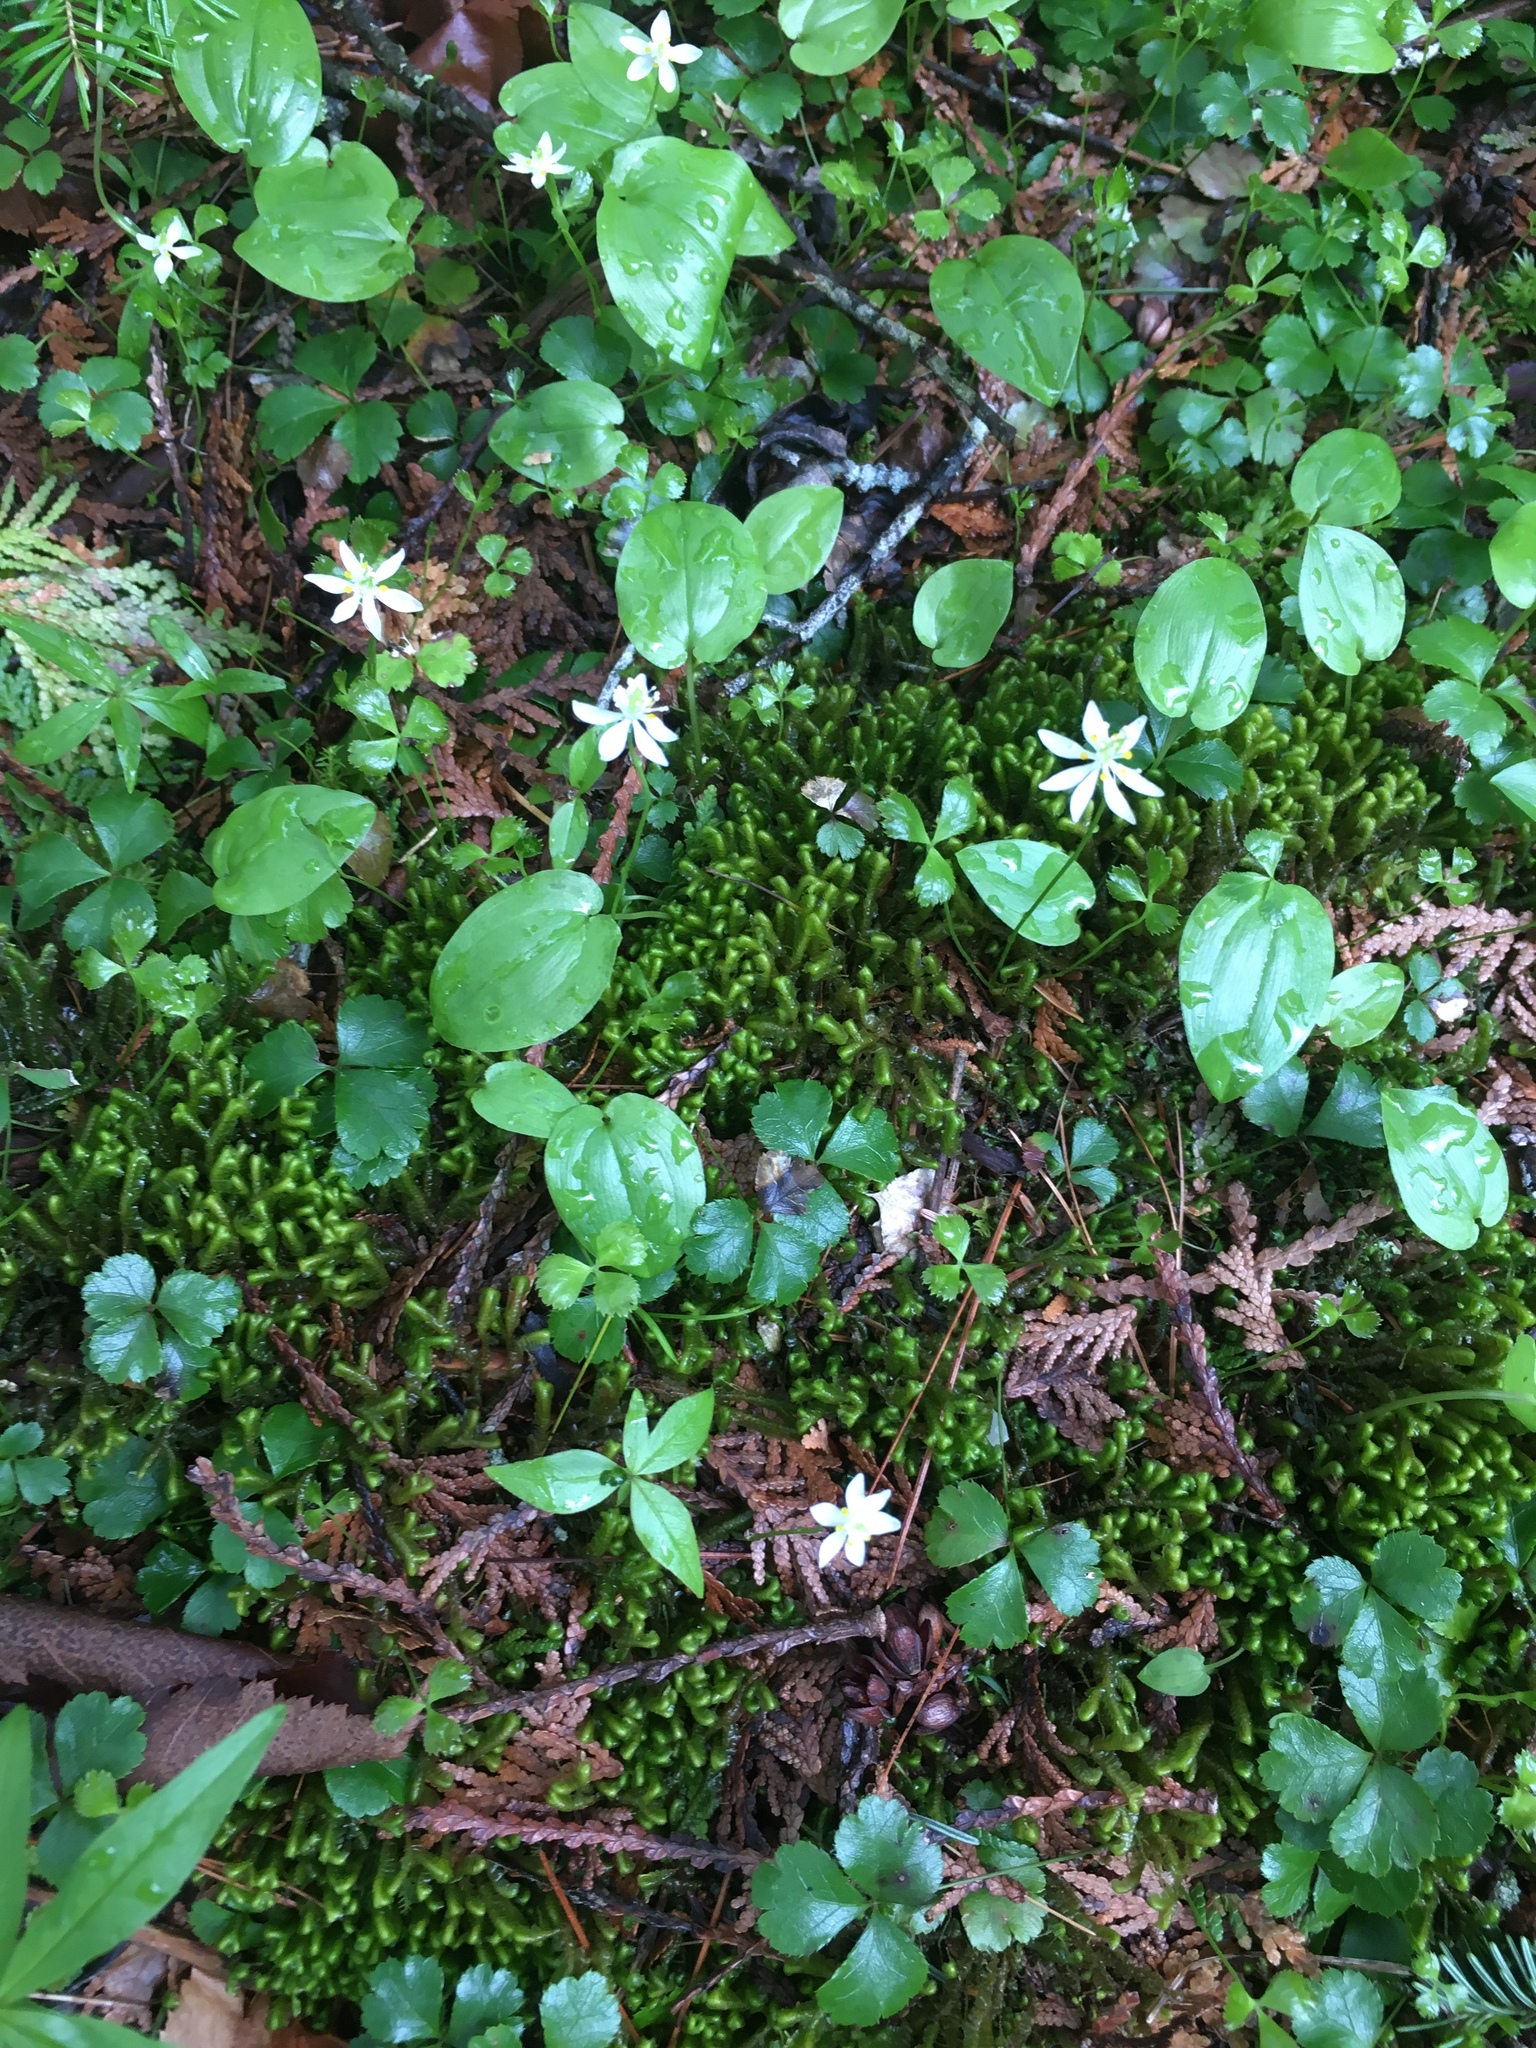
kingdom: Plantae
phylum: Tracheophyta
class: Magnoliopsida
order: Ranunculales
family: Ranunculaceae
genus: Coptis
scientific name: Coptis trifolia
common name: Canker-root
